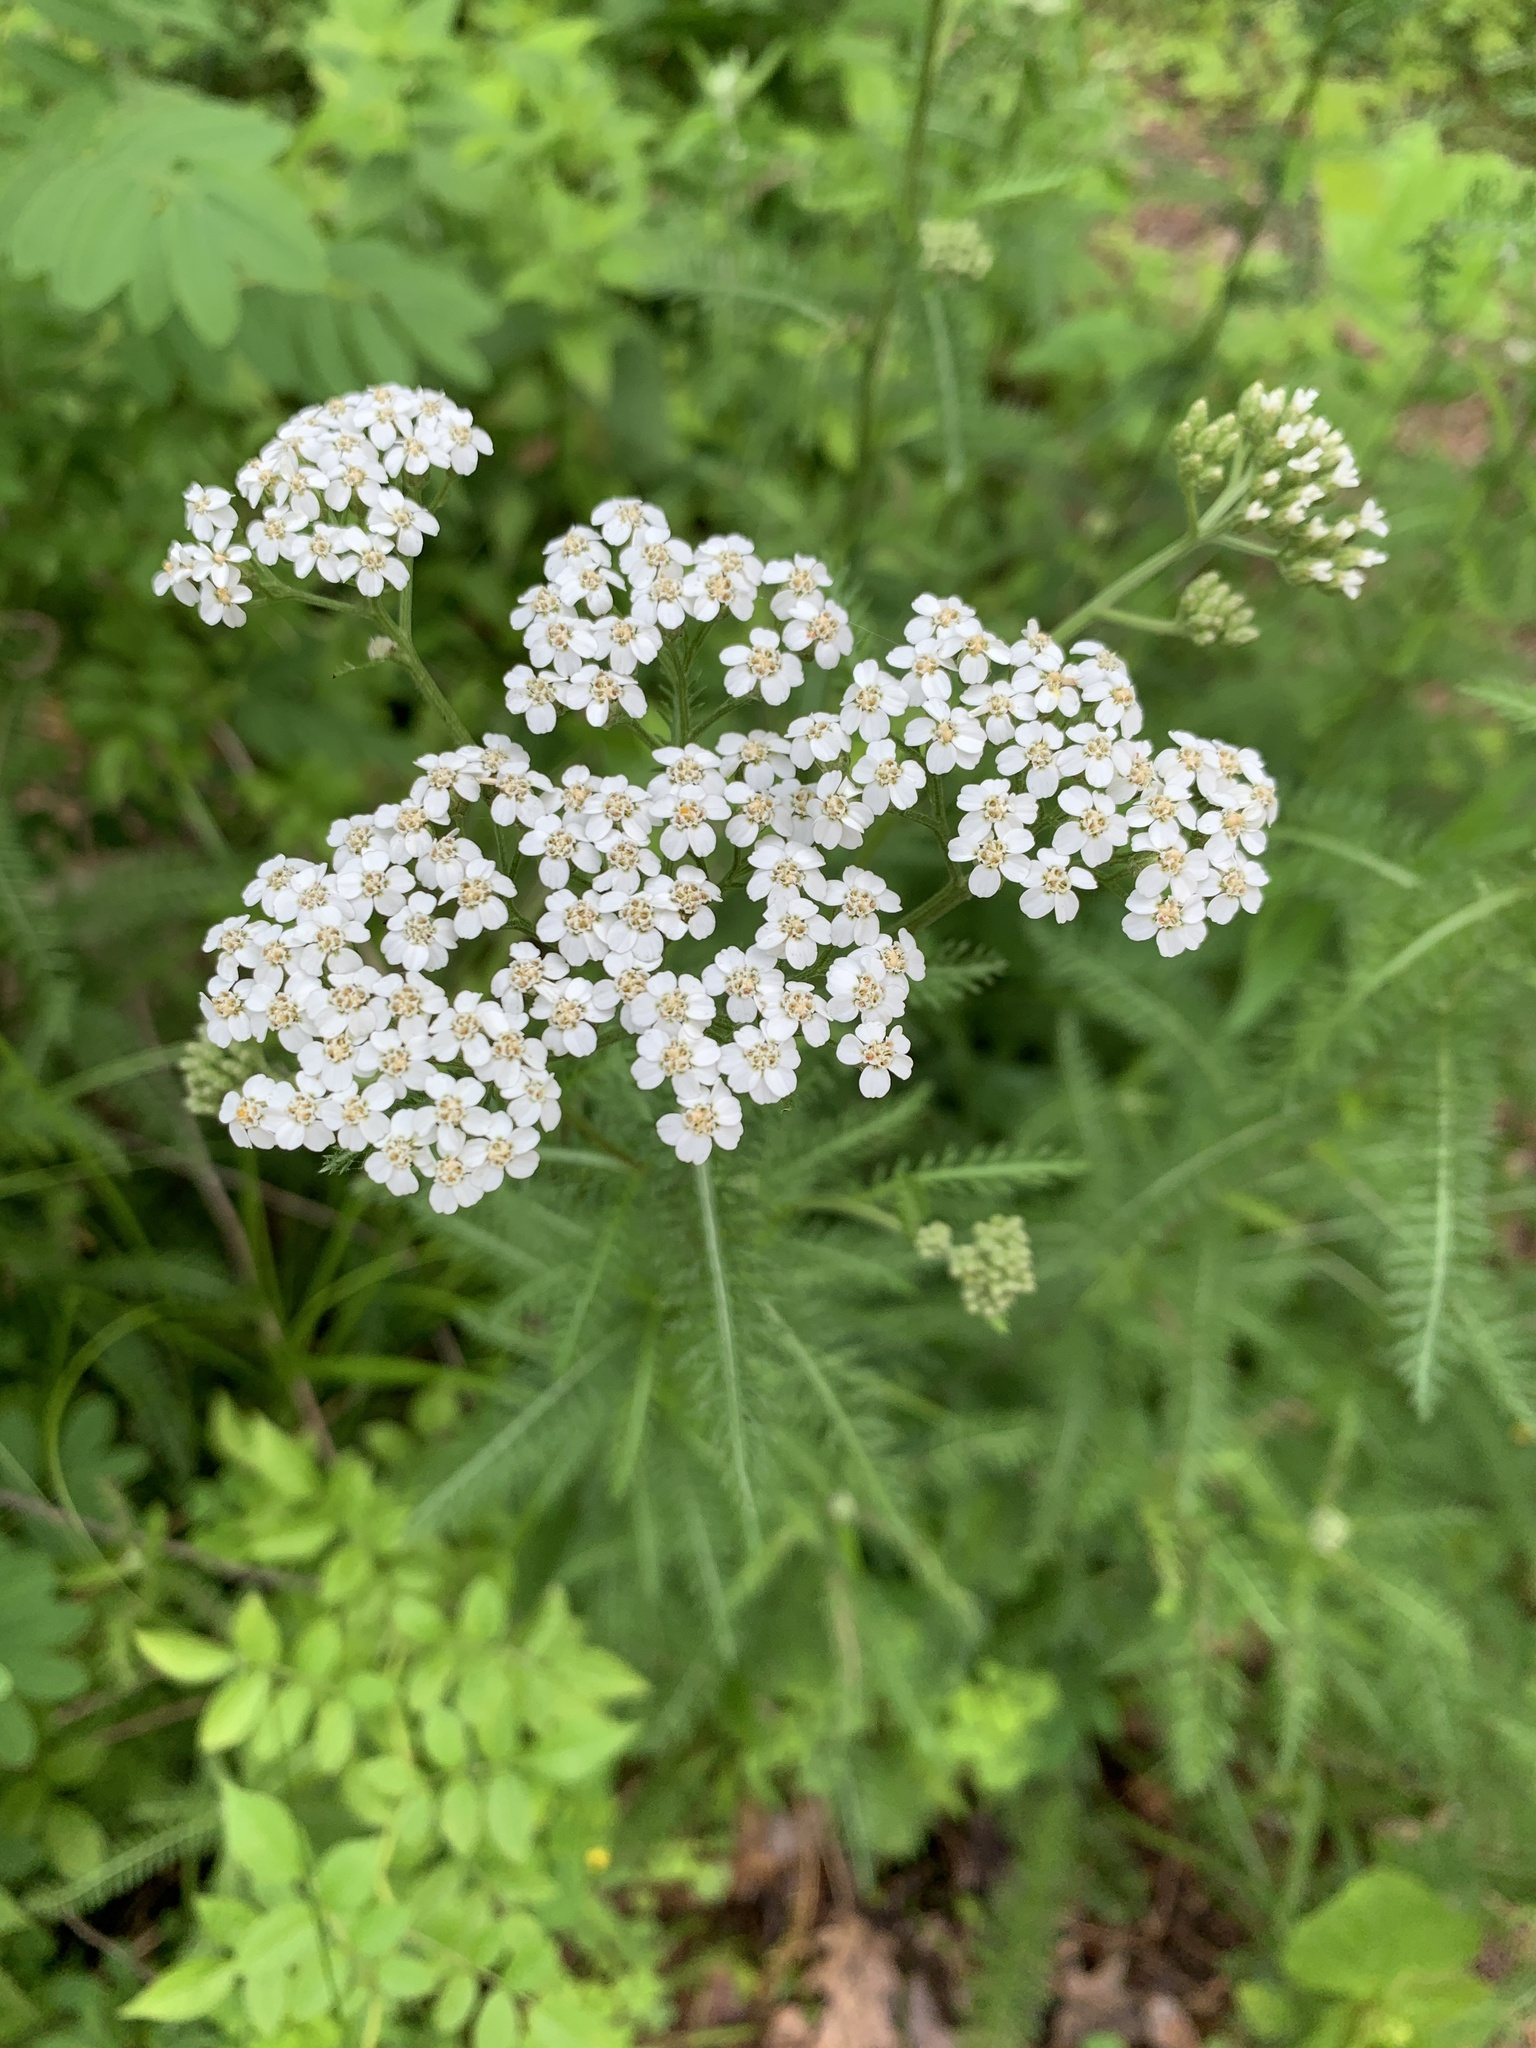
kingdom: Plantae
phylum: Tracheophyta
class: Magnoliopsida
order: Asterales
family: Asteraceae
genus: Achillea
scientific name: Achillea millefolium
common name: Yarrow
